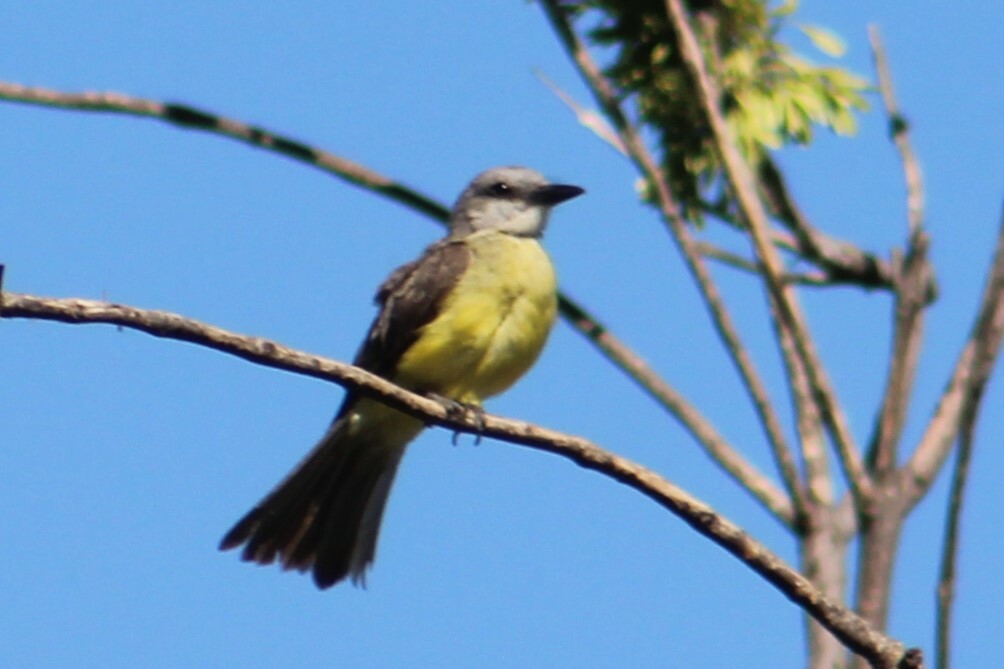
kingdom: Animalia
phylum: Chordata
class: Aves
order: Passeriformes
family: Tyrannidae
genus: Tyrannus
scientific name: Tyrannus melancholicus
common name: Tropical kingbird
